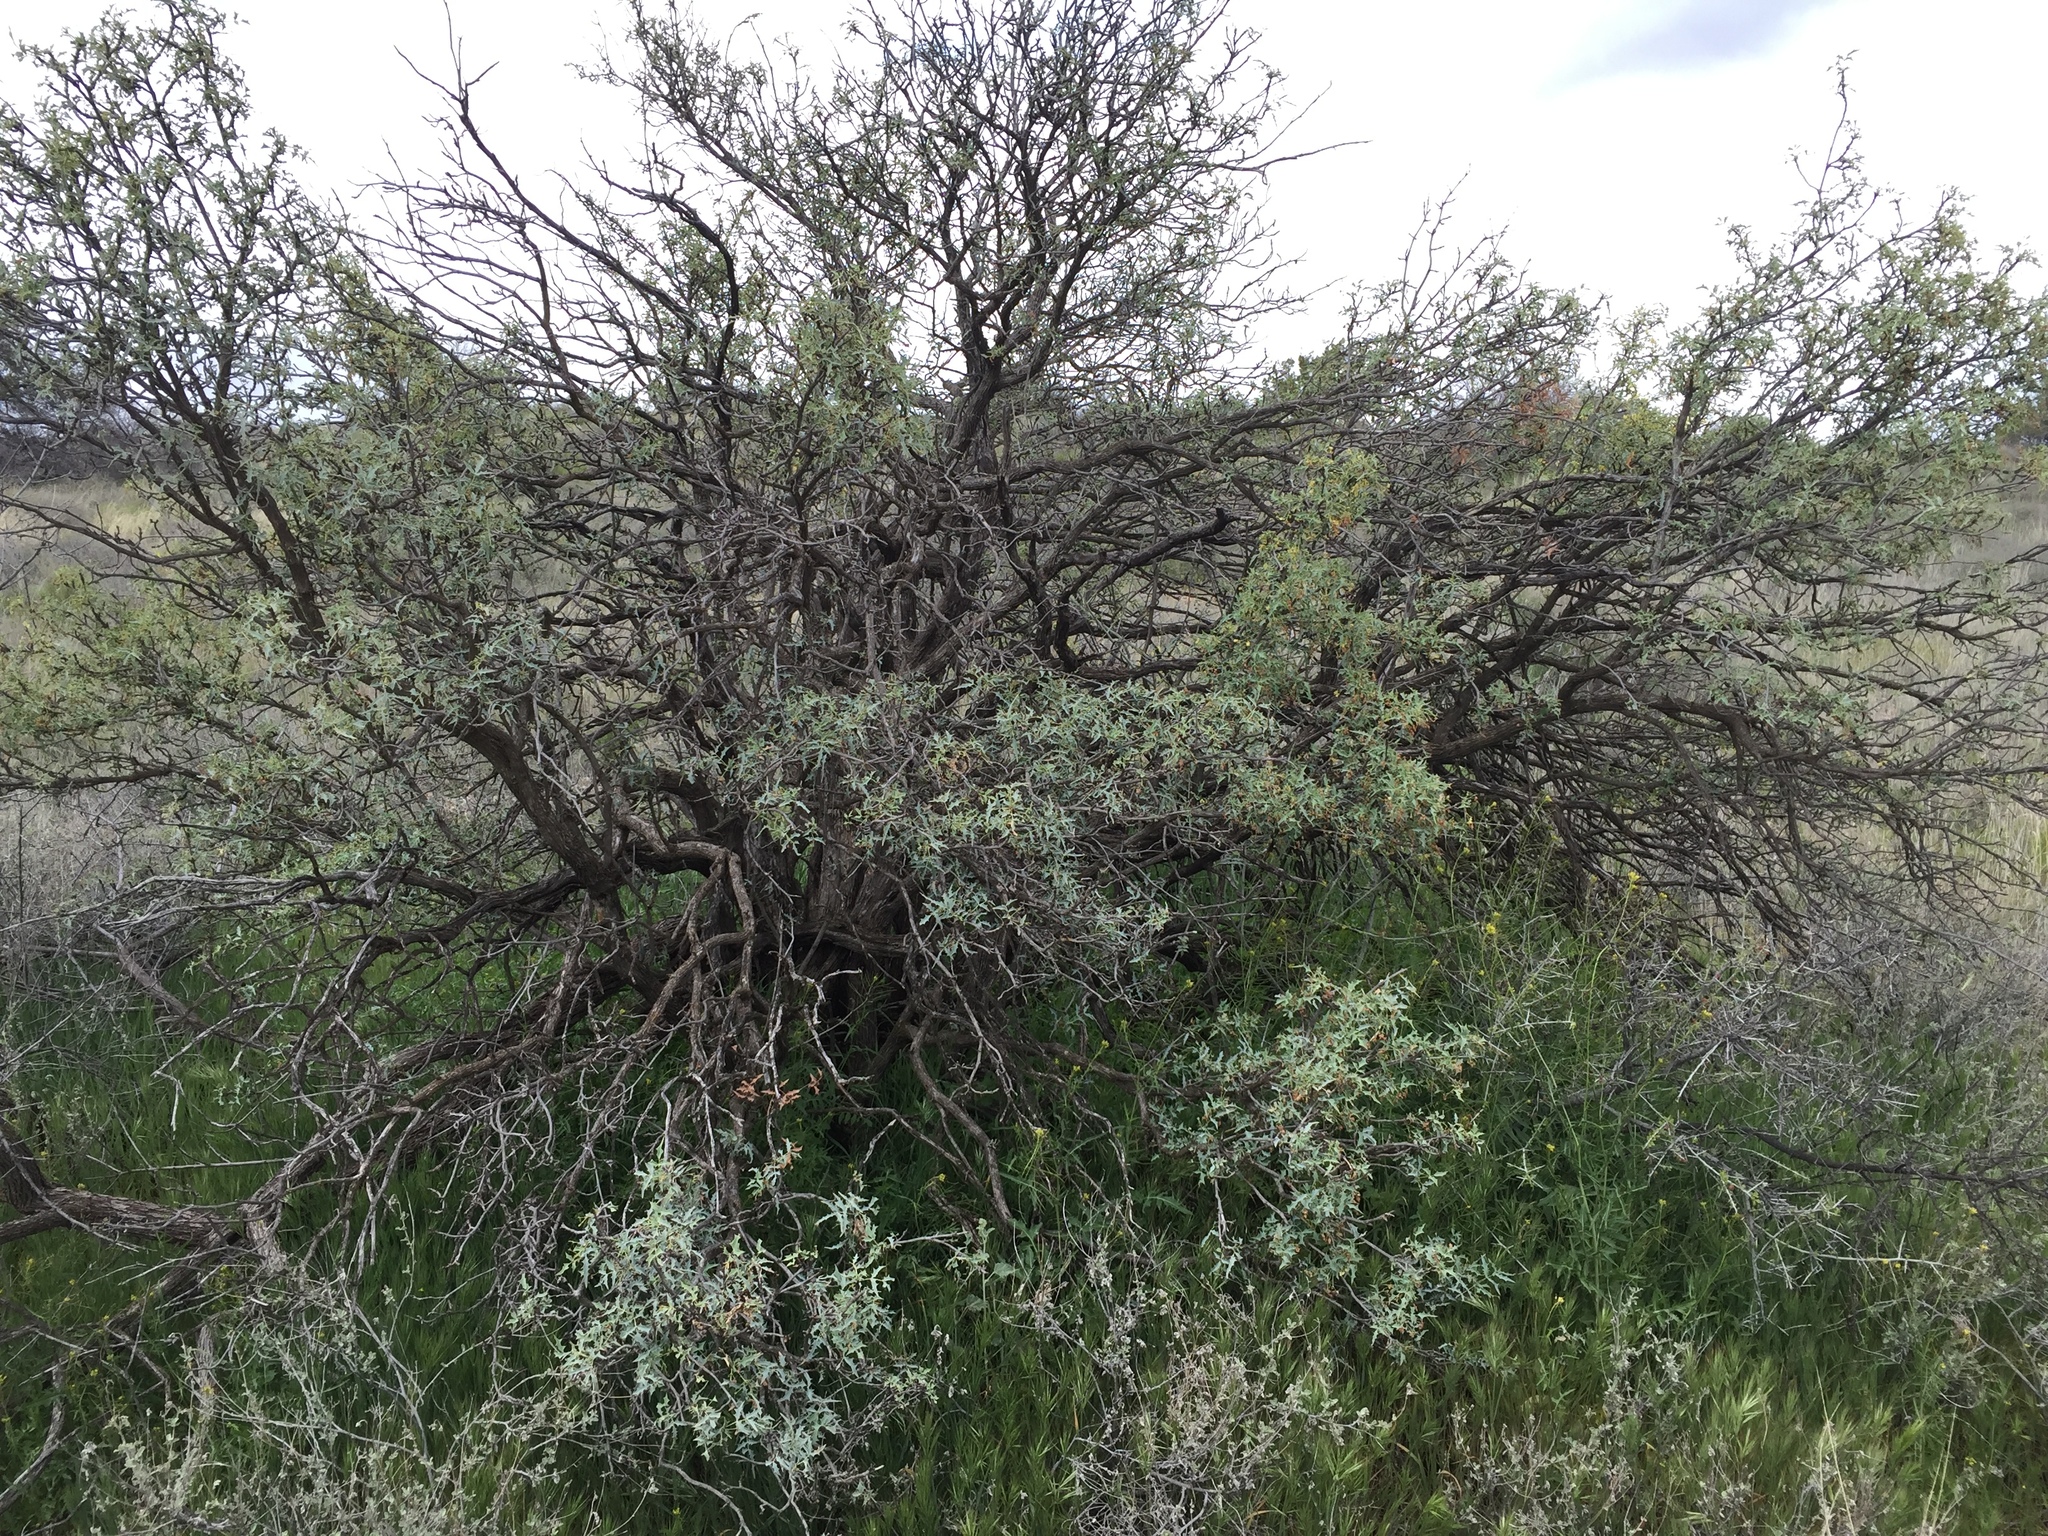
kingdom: Plantae
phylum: Tracheophyta
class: Magnoliopsida
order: Ranunculales
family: Berberidaceae
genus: Alloberberis
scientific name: Alloberberis fremontii
